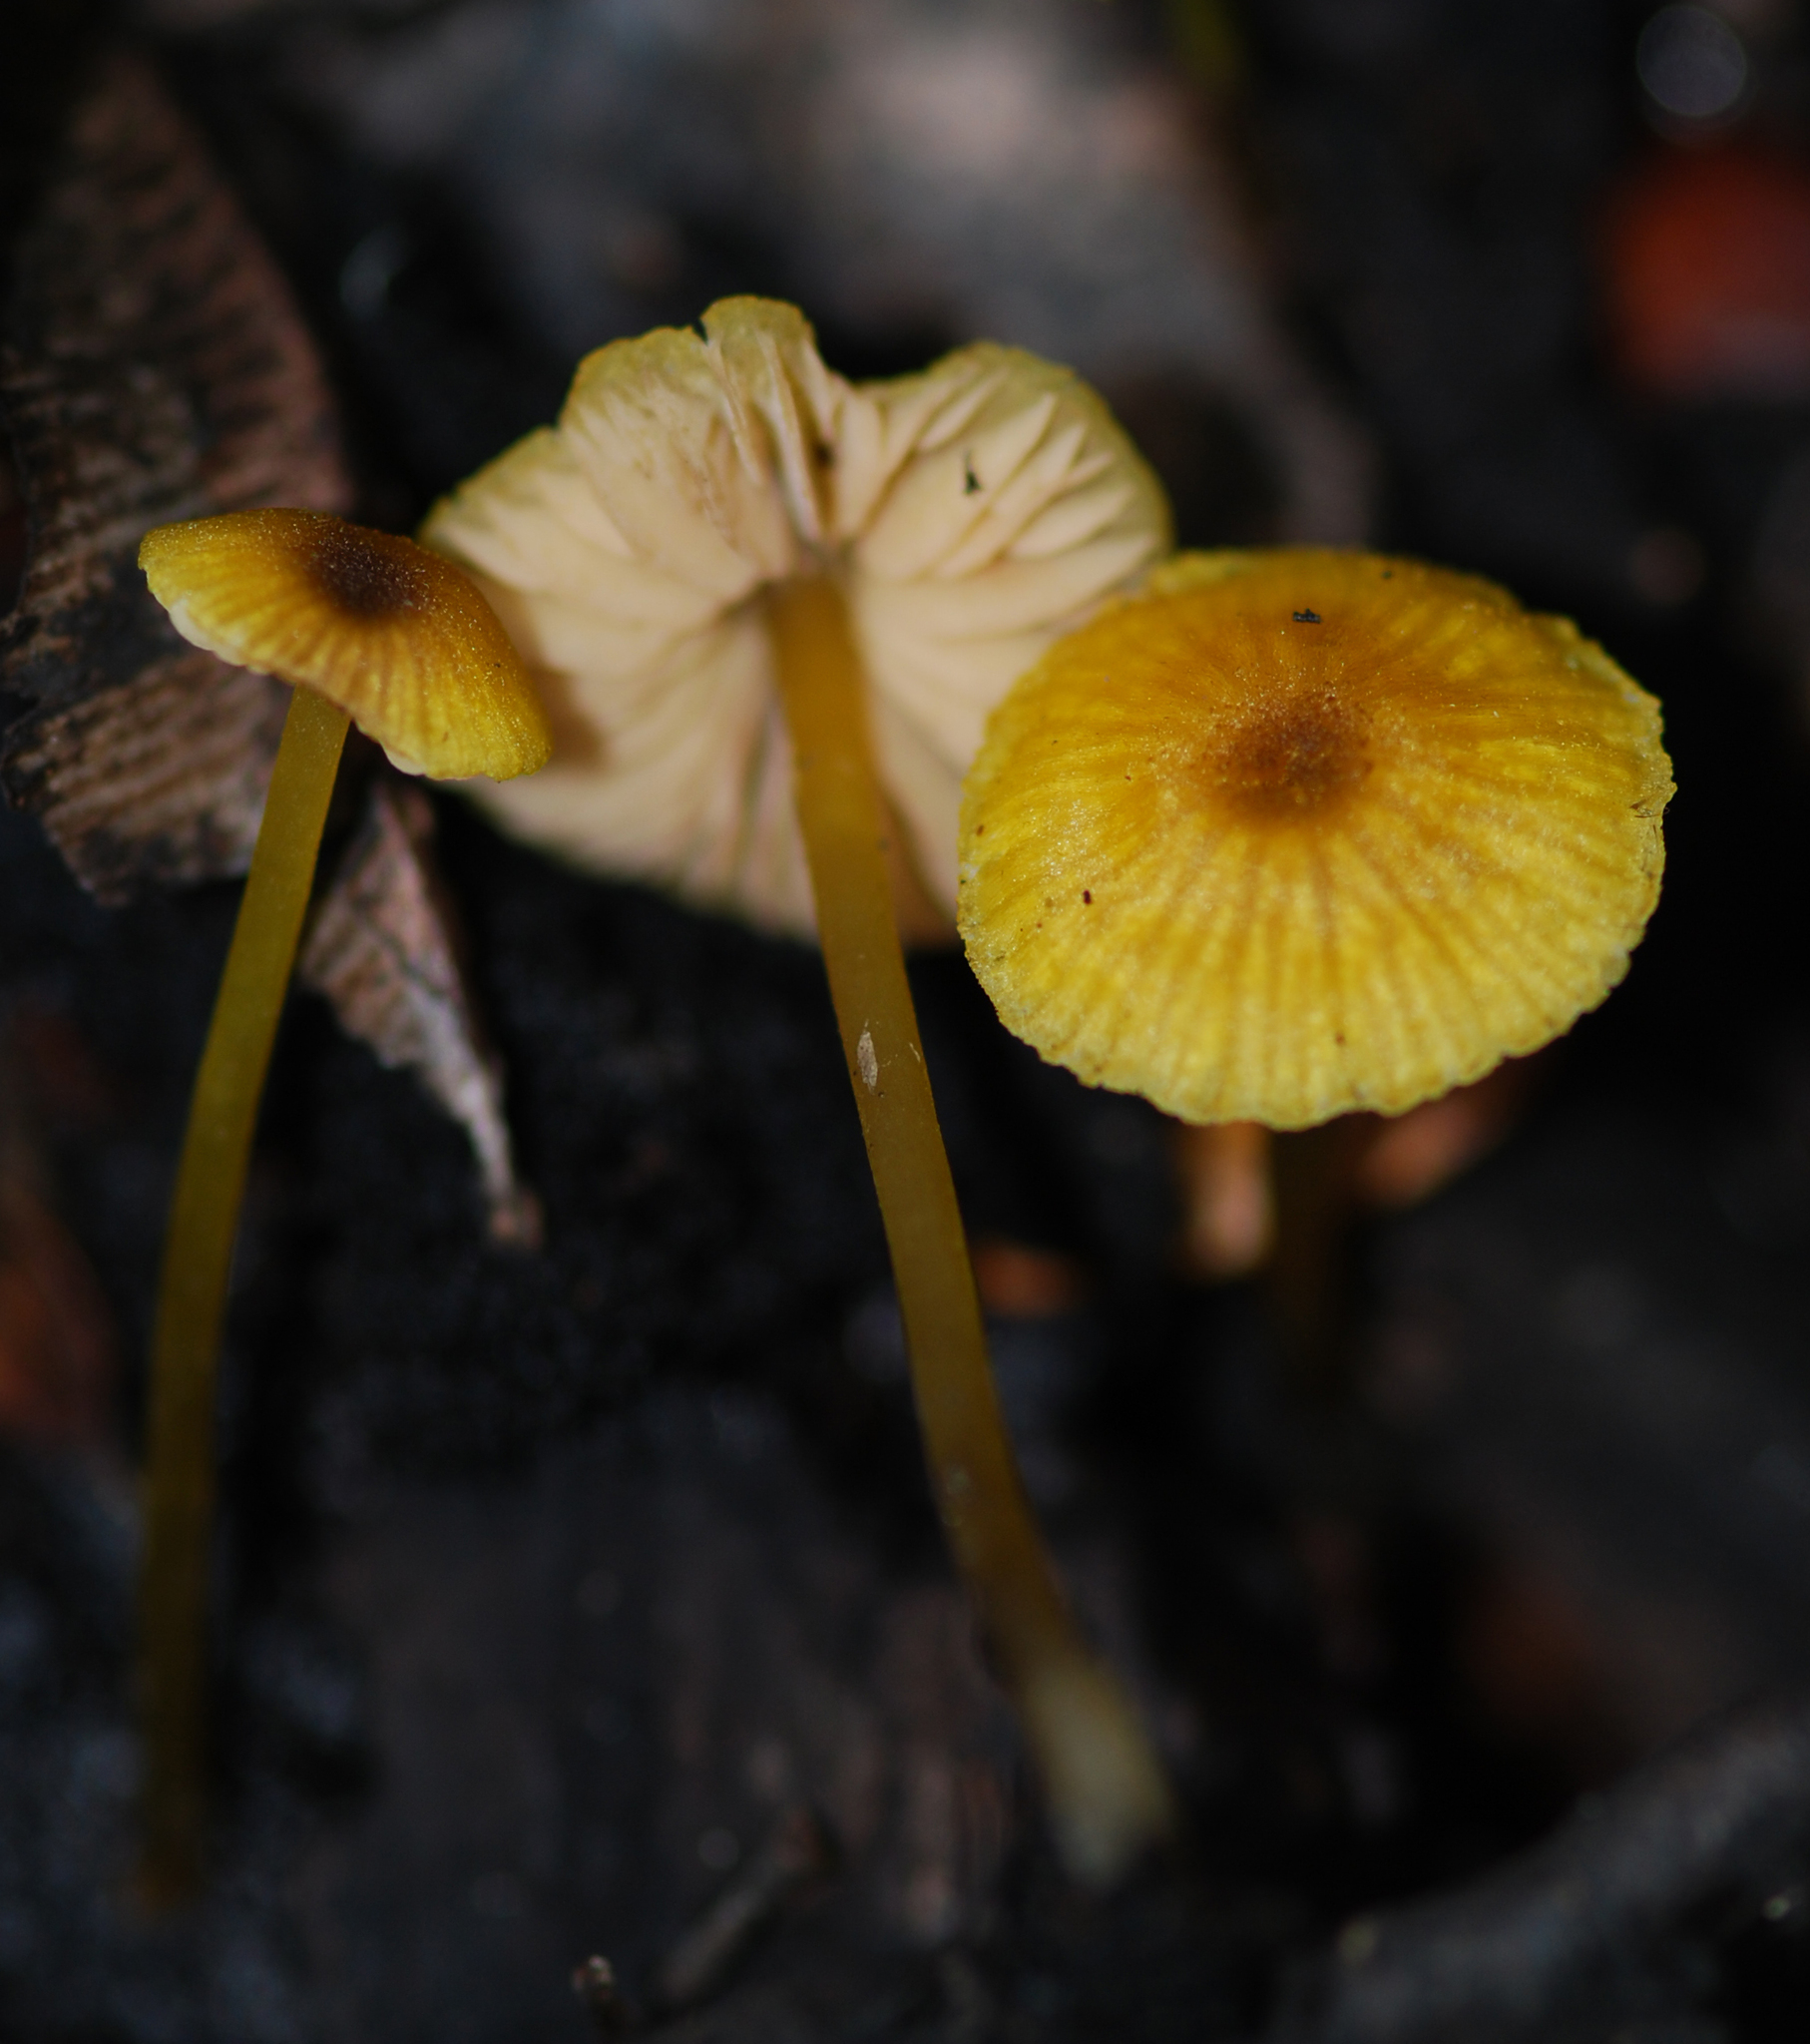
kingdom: Fungi
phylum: Basidiomycota
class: Agaricomycetes
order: Agaricales
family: Entolomataceae
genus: Entoloma
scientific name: Entoloma readiae
